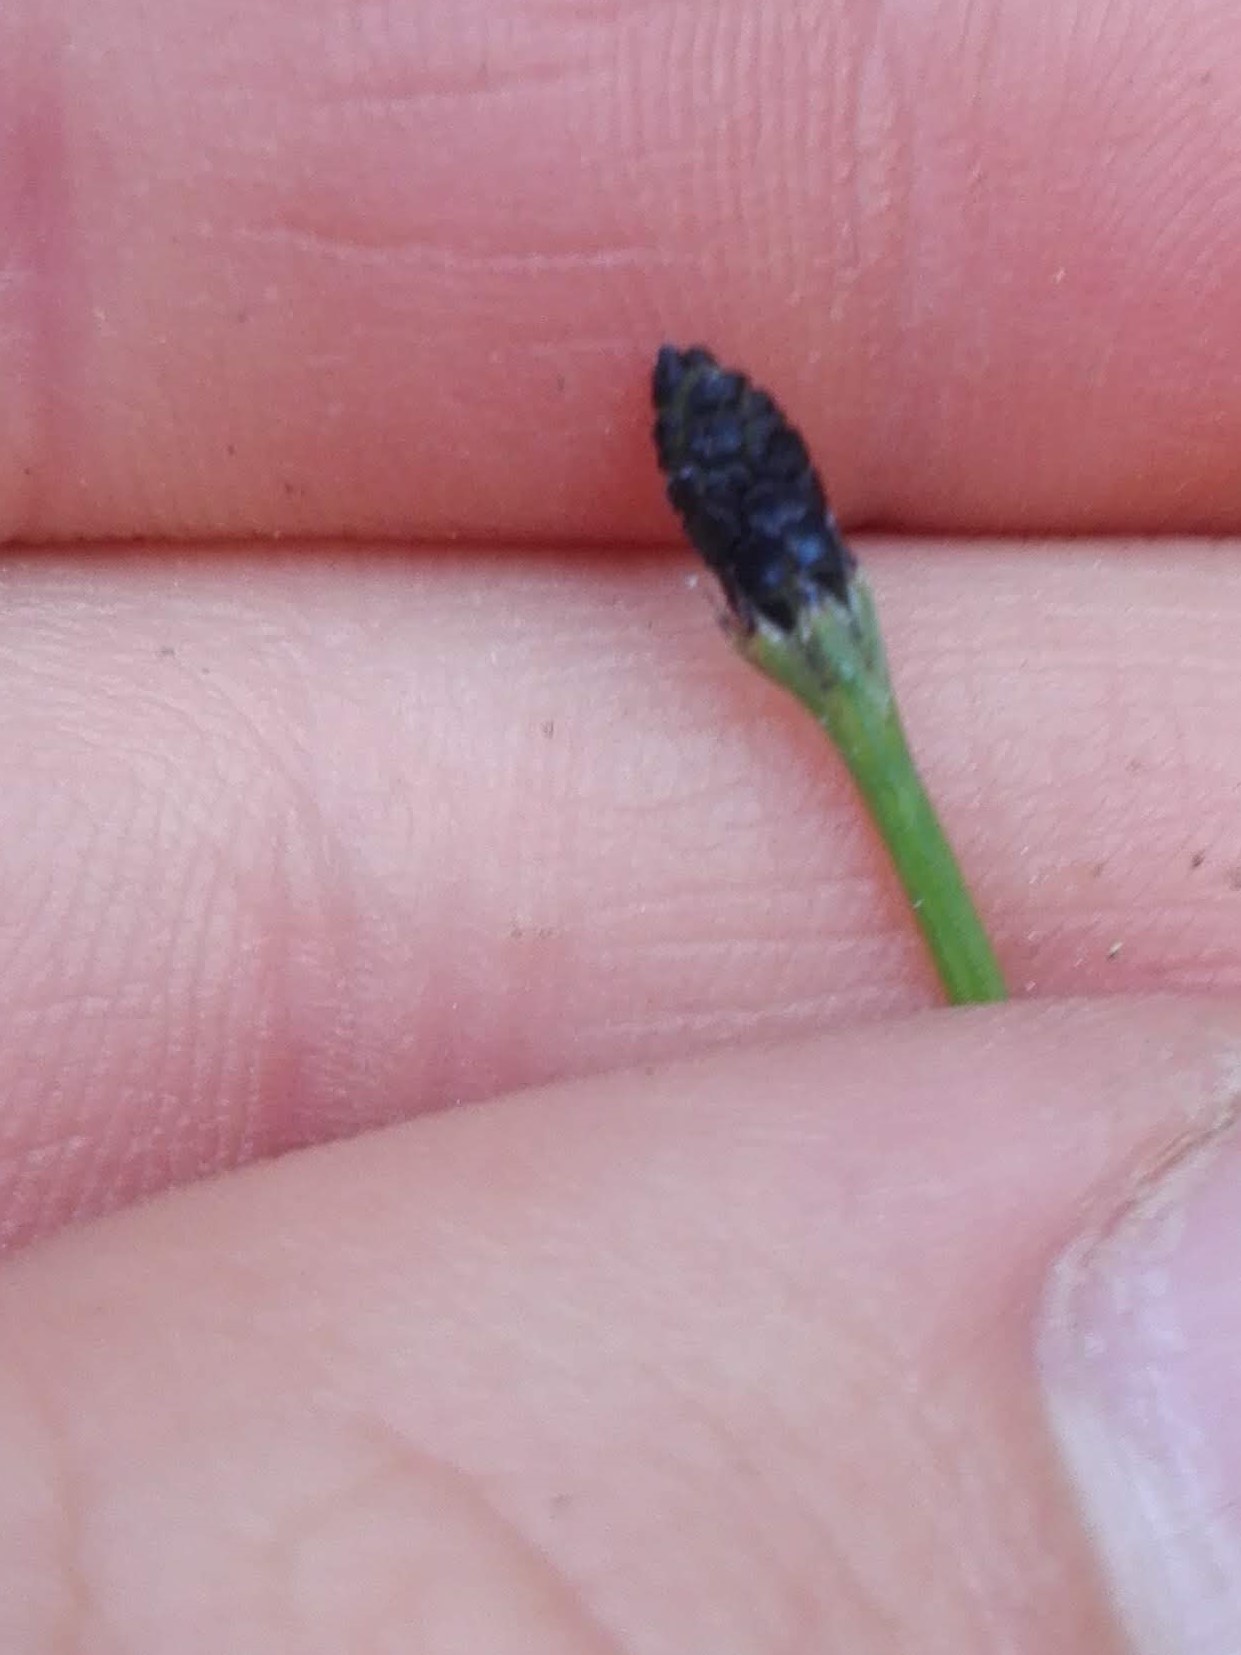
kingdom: Plantae
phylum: Tracheophyta
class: Polypodiopsida
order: Equisetales
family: Equisetaceae
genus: Equisetum
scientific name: Equisetum ramosissimum
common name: Branched horsetail
